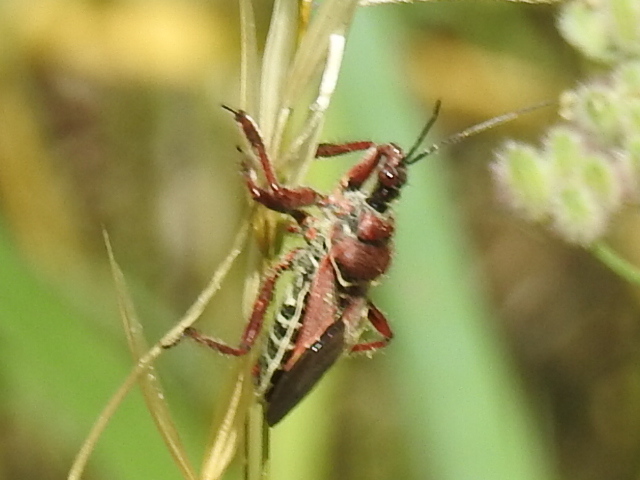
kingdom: Animalia
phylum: Arthropoda
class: Insecta
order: Hemiptera
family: Reduviidae
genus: Apiomerus
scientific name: Apiomerus spissipes
